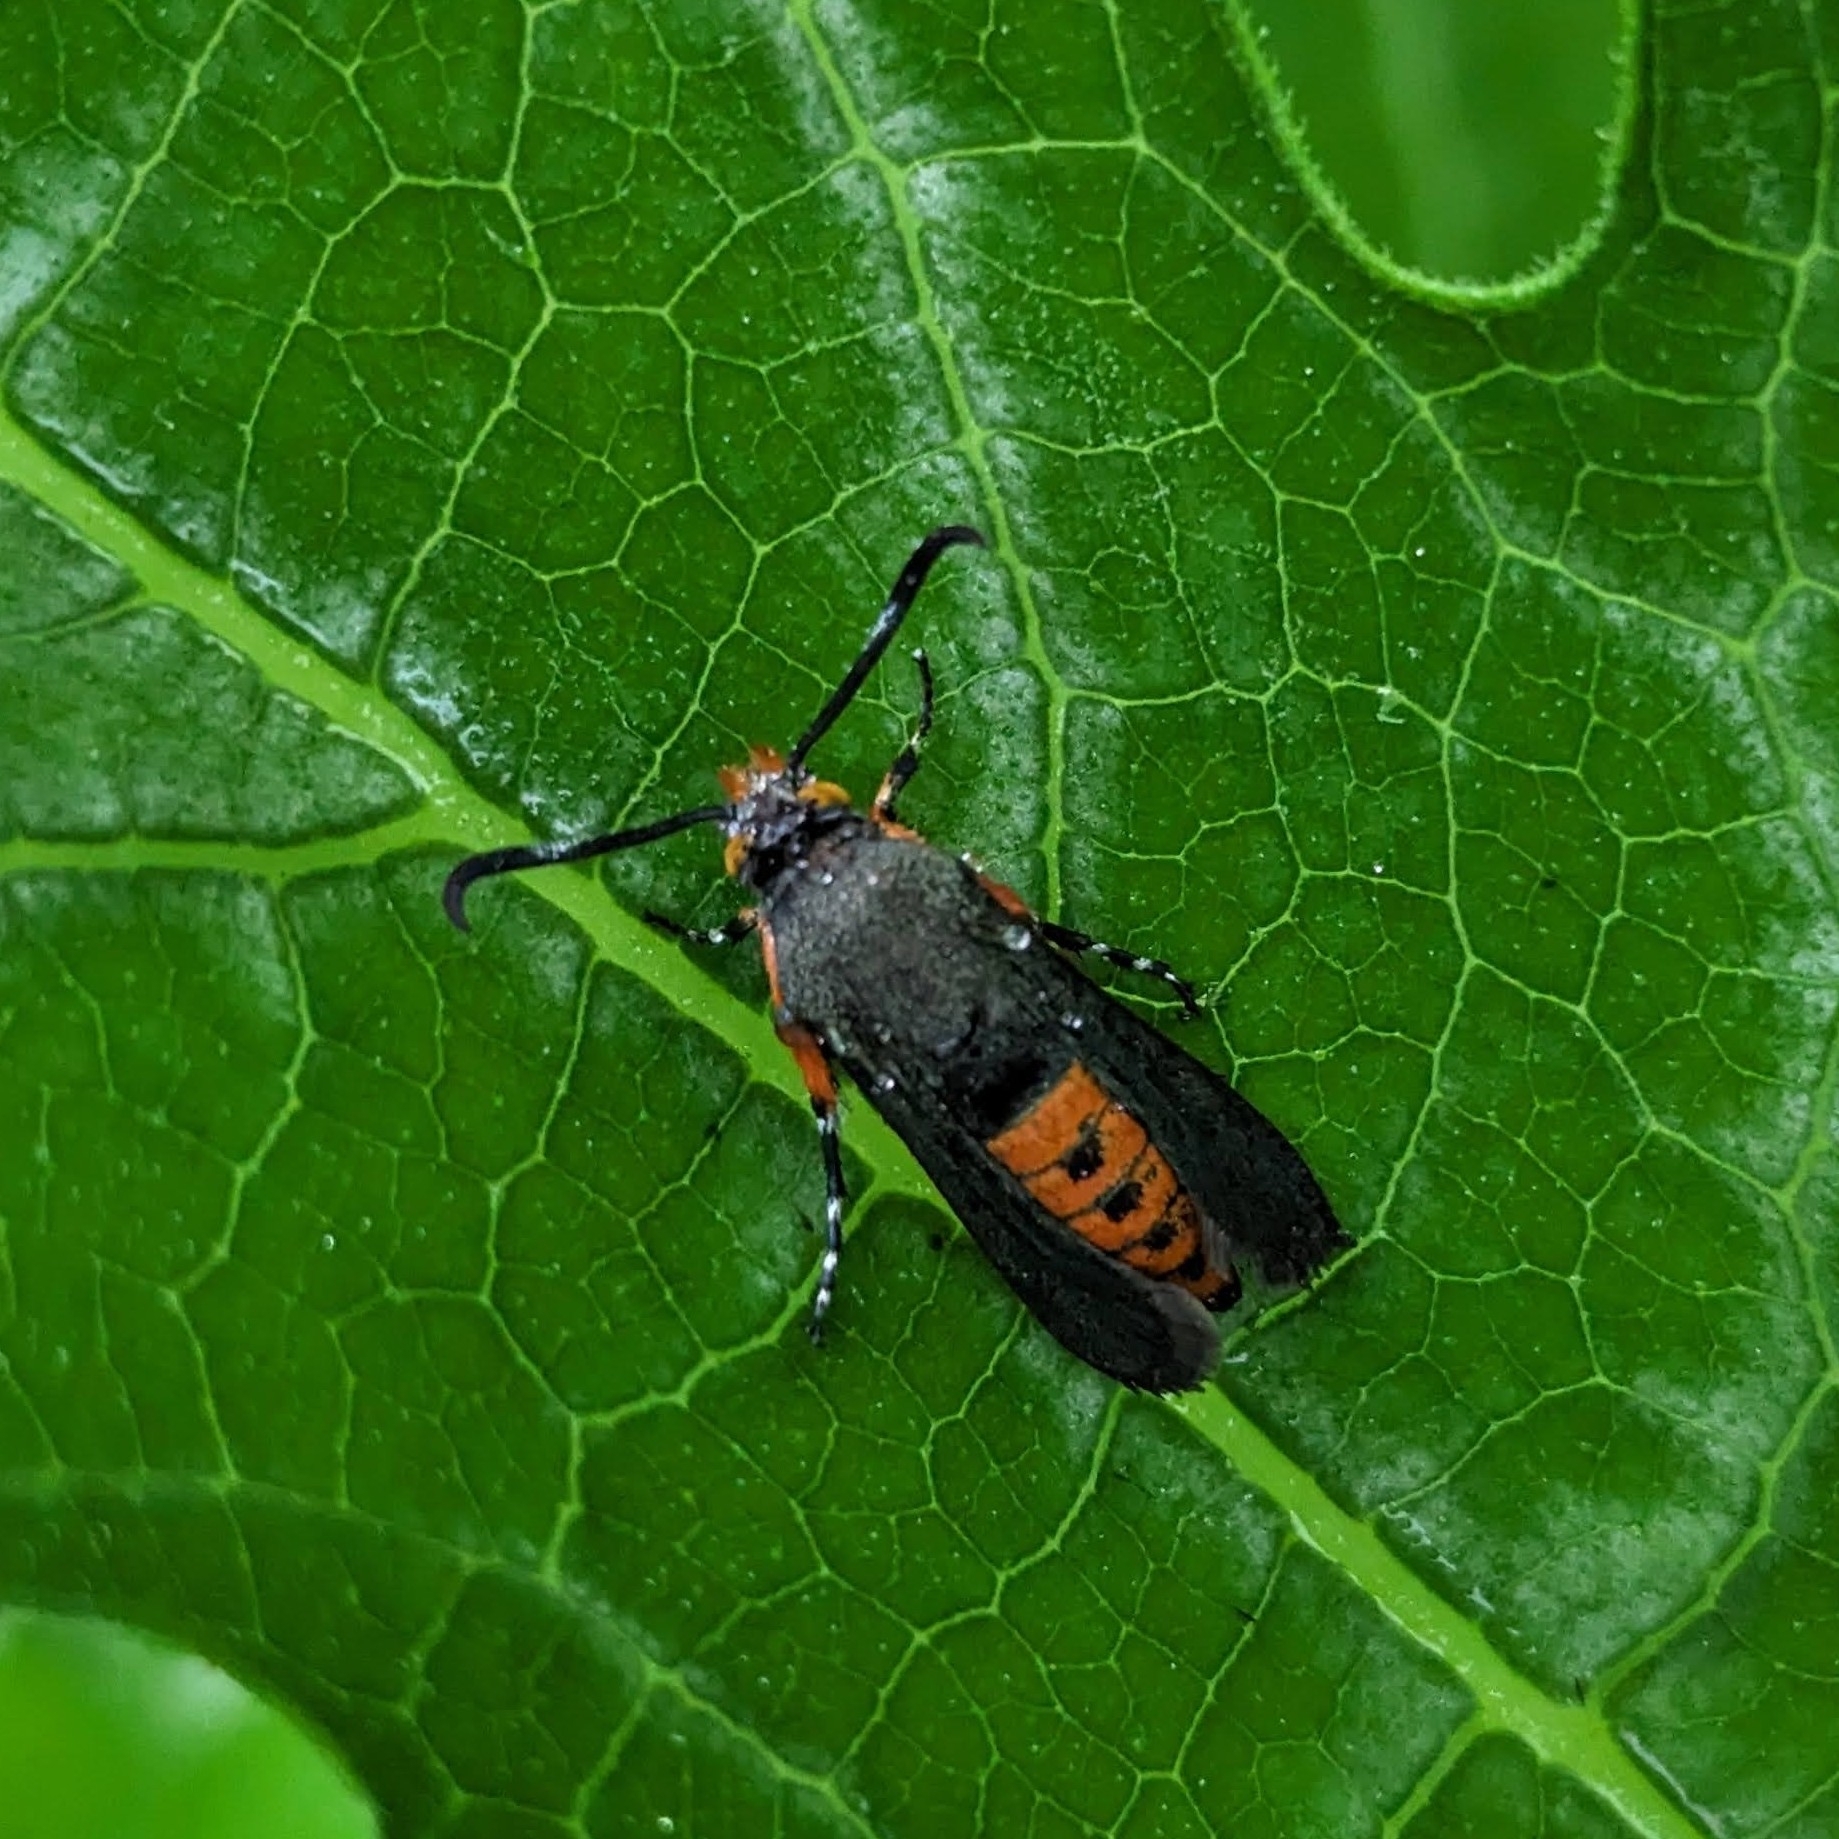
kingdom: Animalia
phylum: Arthropoda
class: Insecta
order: Lepidoptera
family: Sesiidae
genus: Eichlinia
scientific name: Eichlinia cucurbitae
